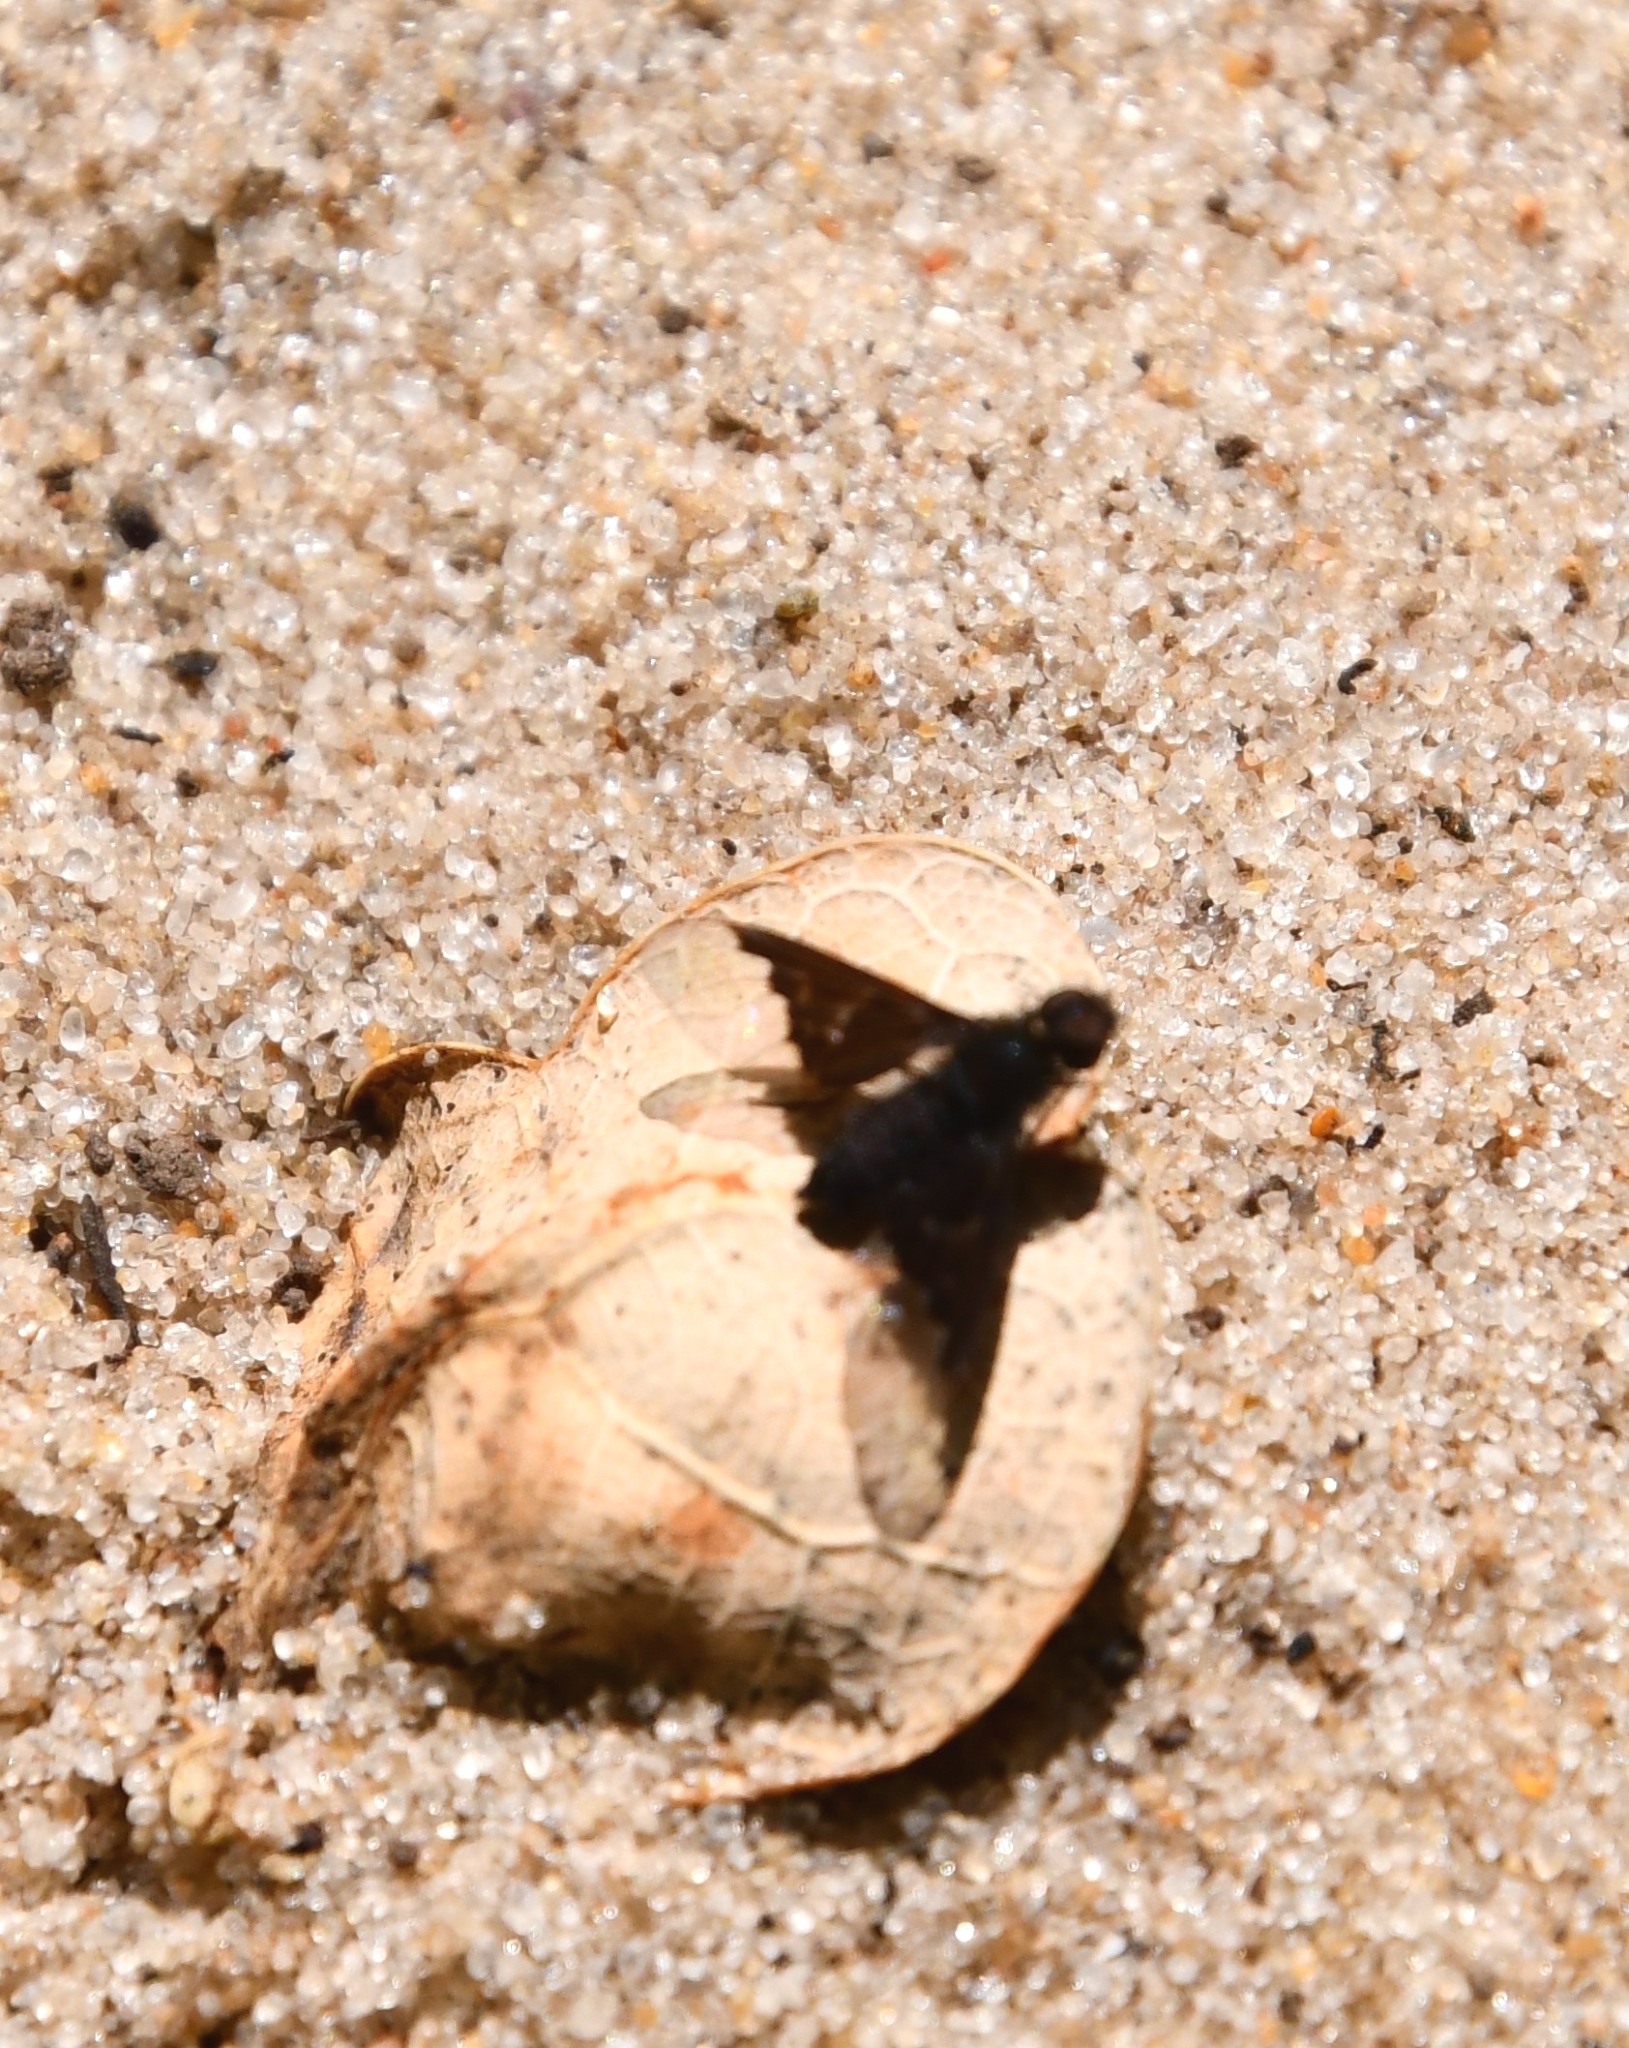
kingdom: Animalia
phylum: Arthropoda
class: Insecta
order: Diptera
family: Bombyliidae
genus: Hemipenthes
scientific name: Hemipenthes morio
